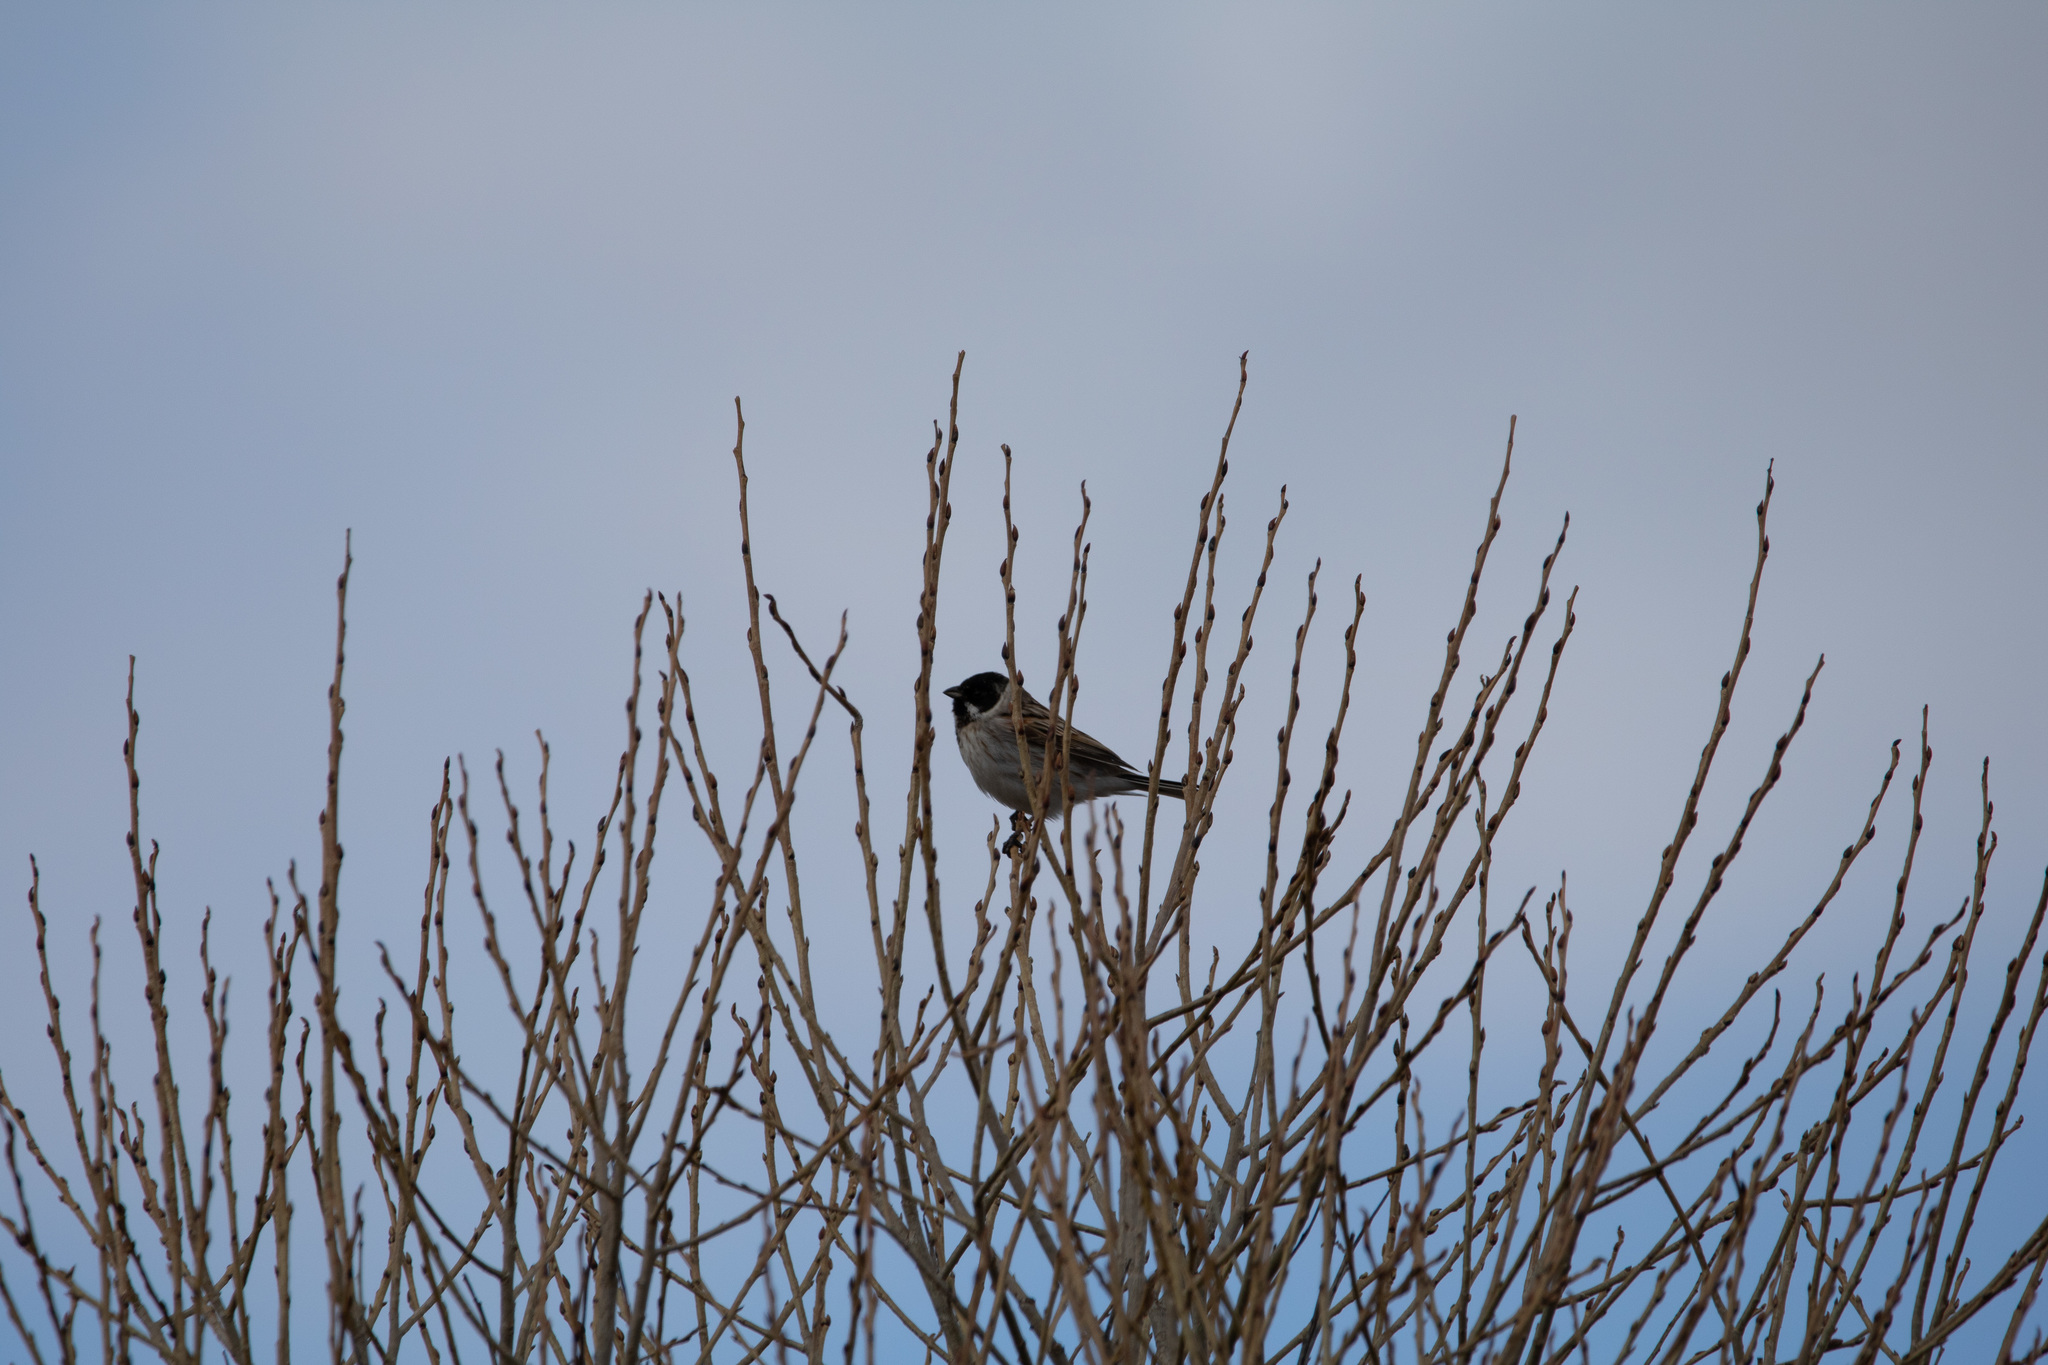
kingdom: Animalia
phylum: Chordata
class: Aves
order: Passeriformes
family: Emberizidae
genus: Emberiza
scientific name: Emberiza schoeniclus
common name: Reed bunting
